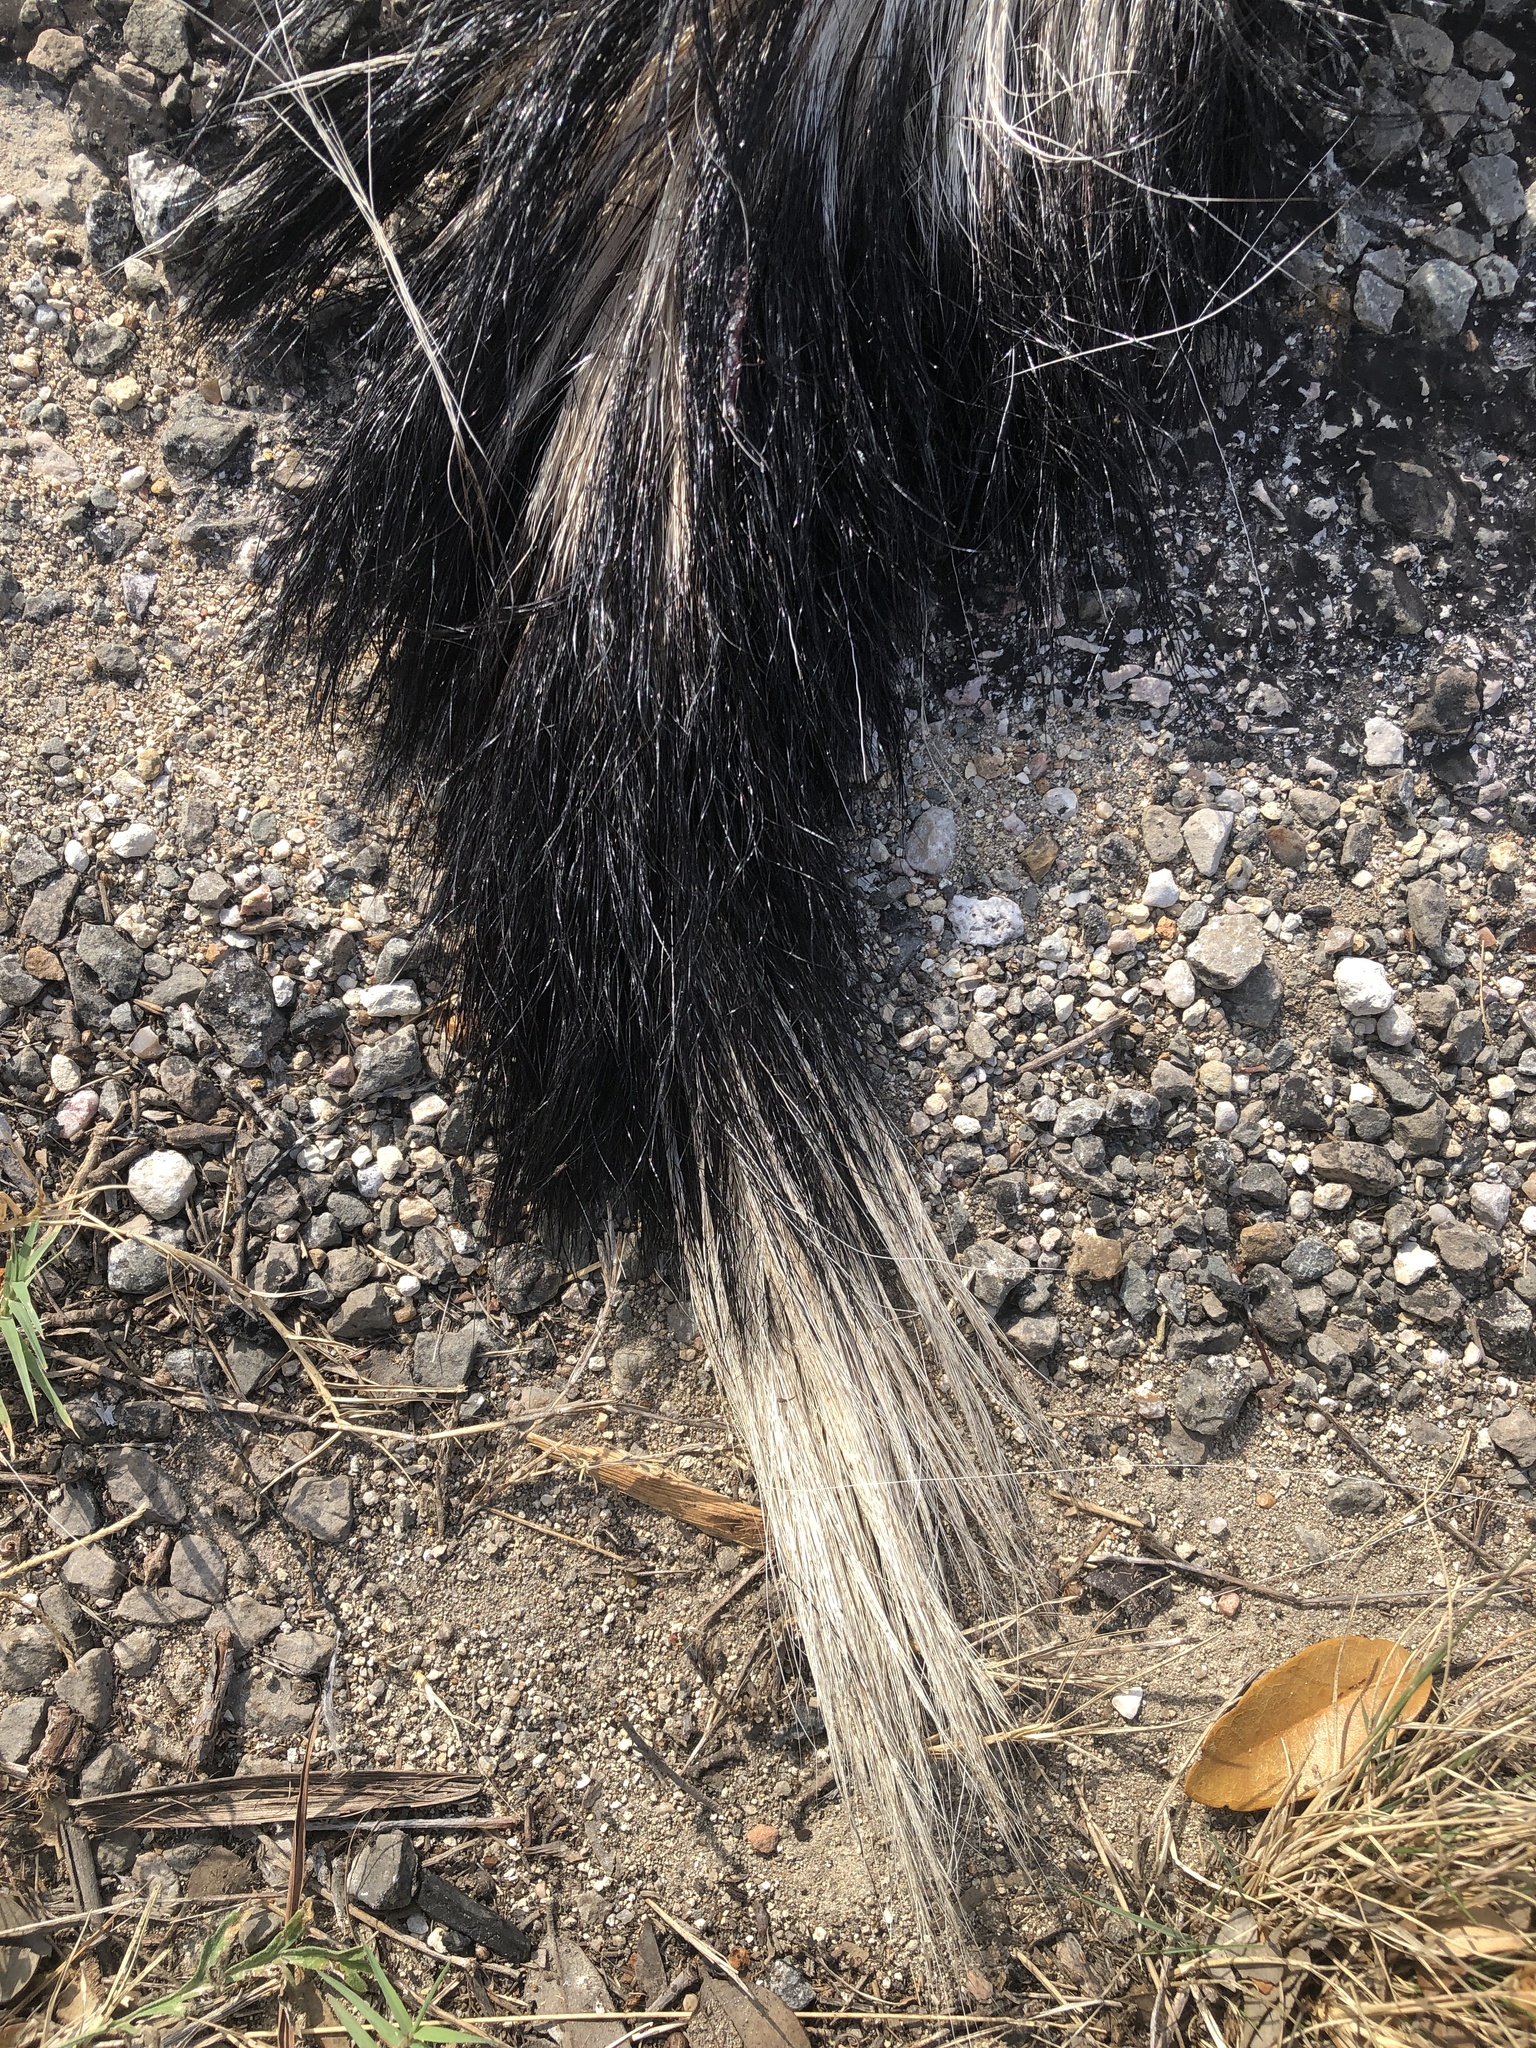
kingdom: Animalia
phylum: Chordata
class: Mammalia
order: Carnivora
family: Mephitidae
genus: Mephitis
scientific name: Mephitis mephitis
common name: Striped skunk
